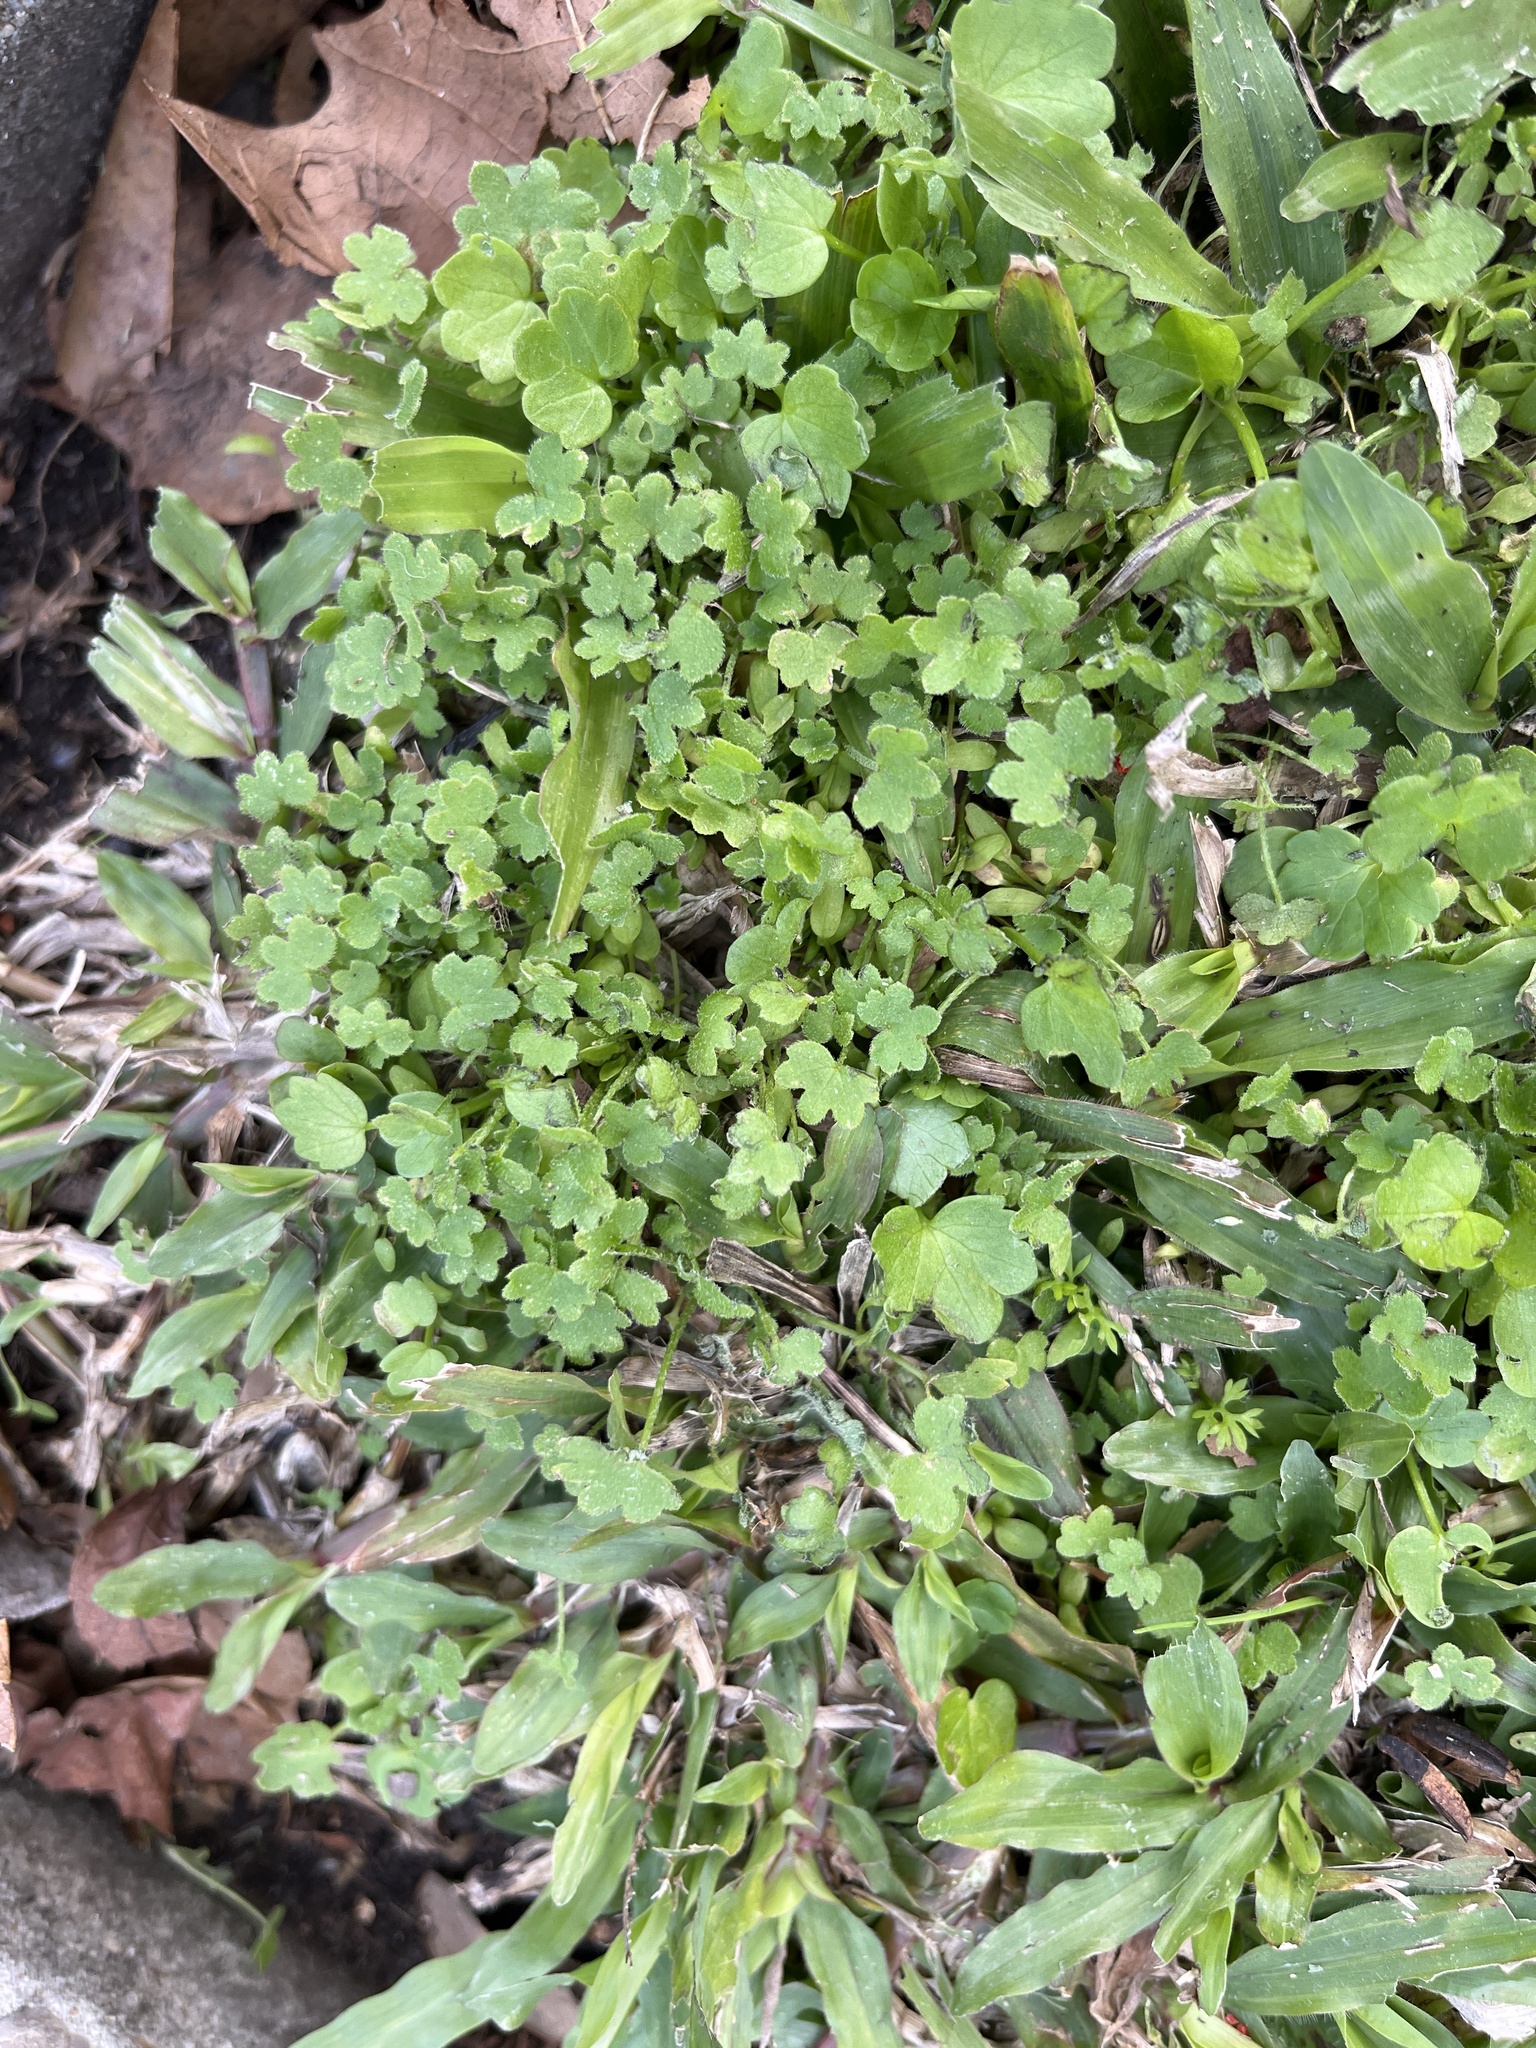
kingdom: Plantae
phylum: Tracheophyta
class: Magnoliopsida
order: Apiales
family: Apiaceae
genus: Bowlesia
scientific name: Bowlesia incana
